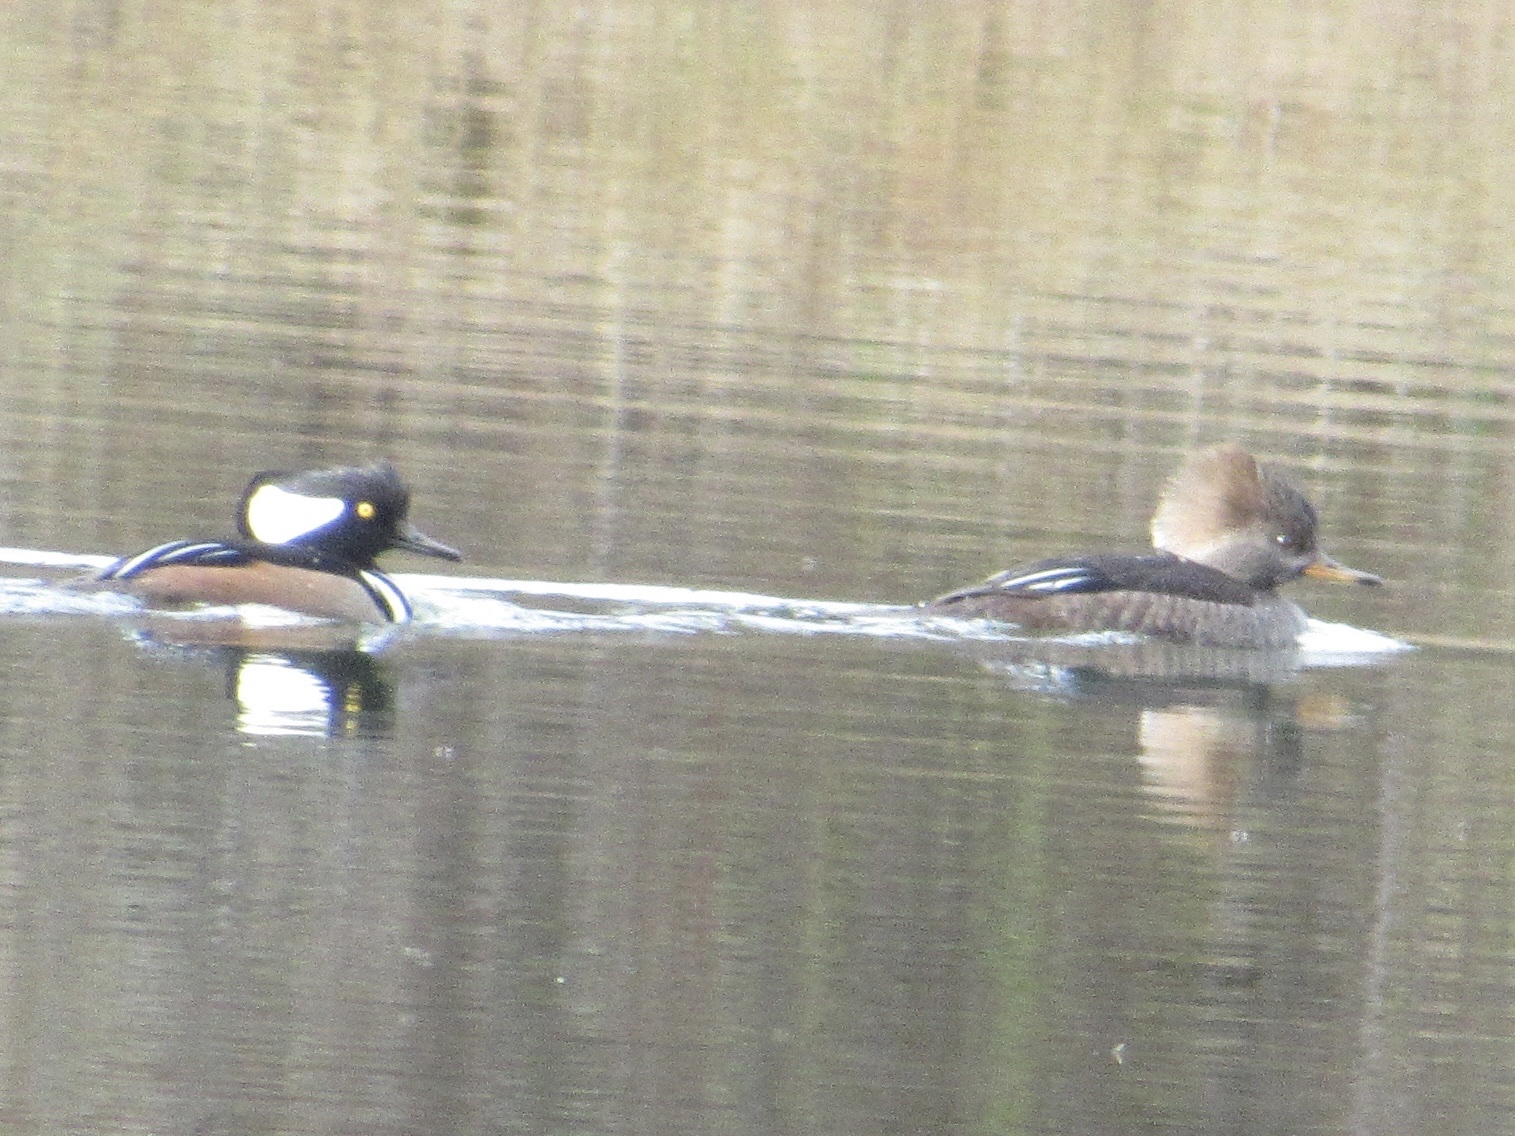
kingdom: Animalia
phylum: Chordata
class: Aves
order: Anseriformes
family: Anatidae
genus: Lophodytes
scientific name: Lophodytes cucullatus
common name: Hooded merganser
